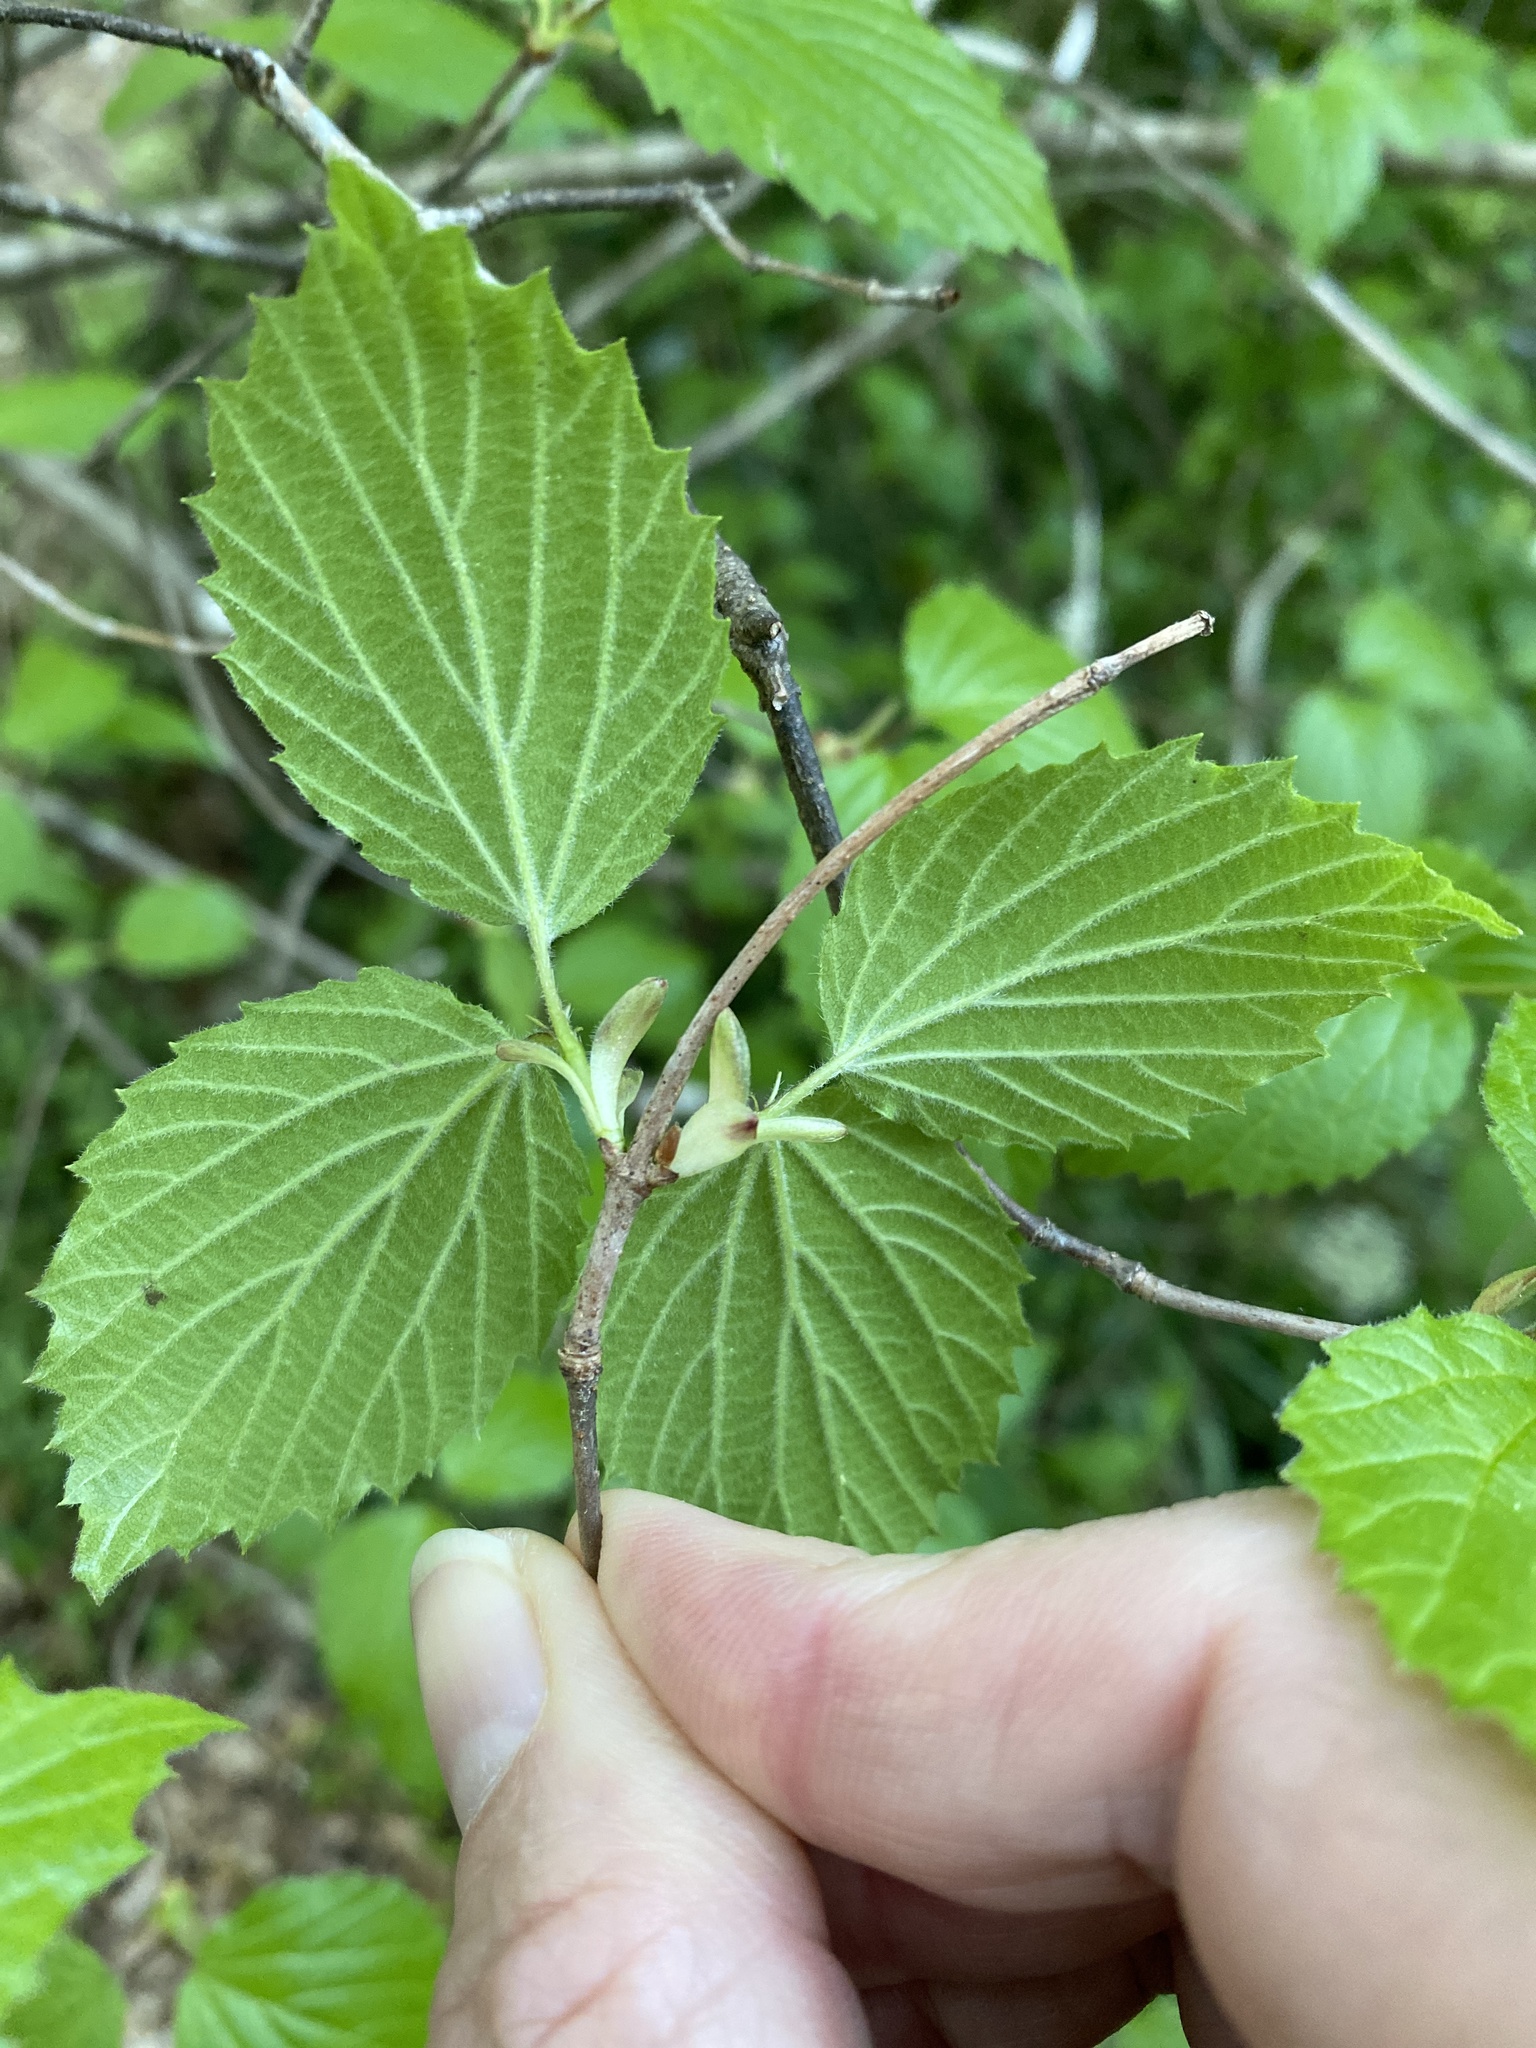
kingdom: Plantae
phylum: Tracheophyta
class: Magnoliopsida
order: Dipsacales
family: Viburnaceae
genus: Viburnum
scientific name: Viburnum rafinesqueanum
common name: Downy arrow-wood
